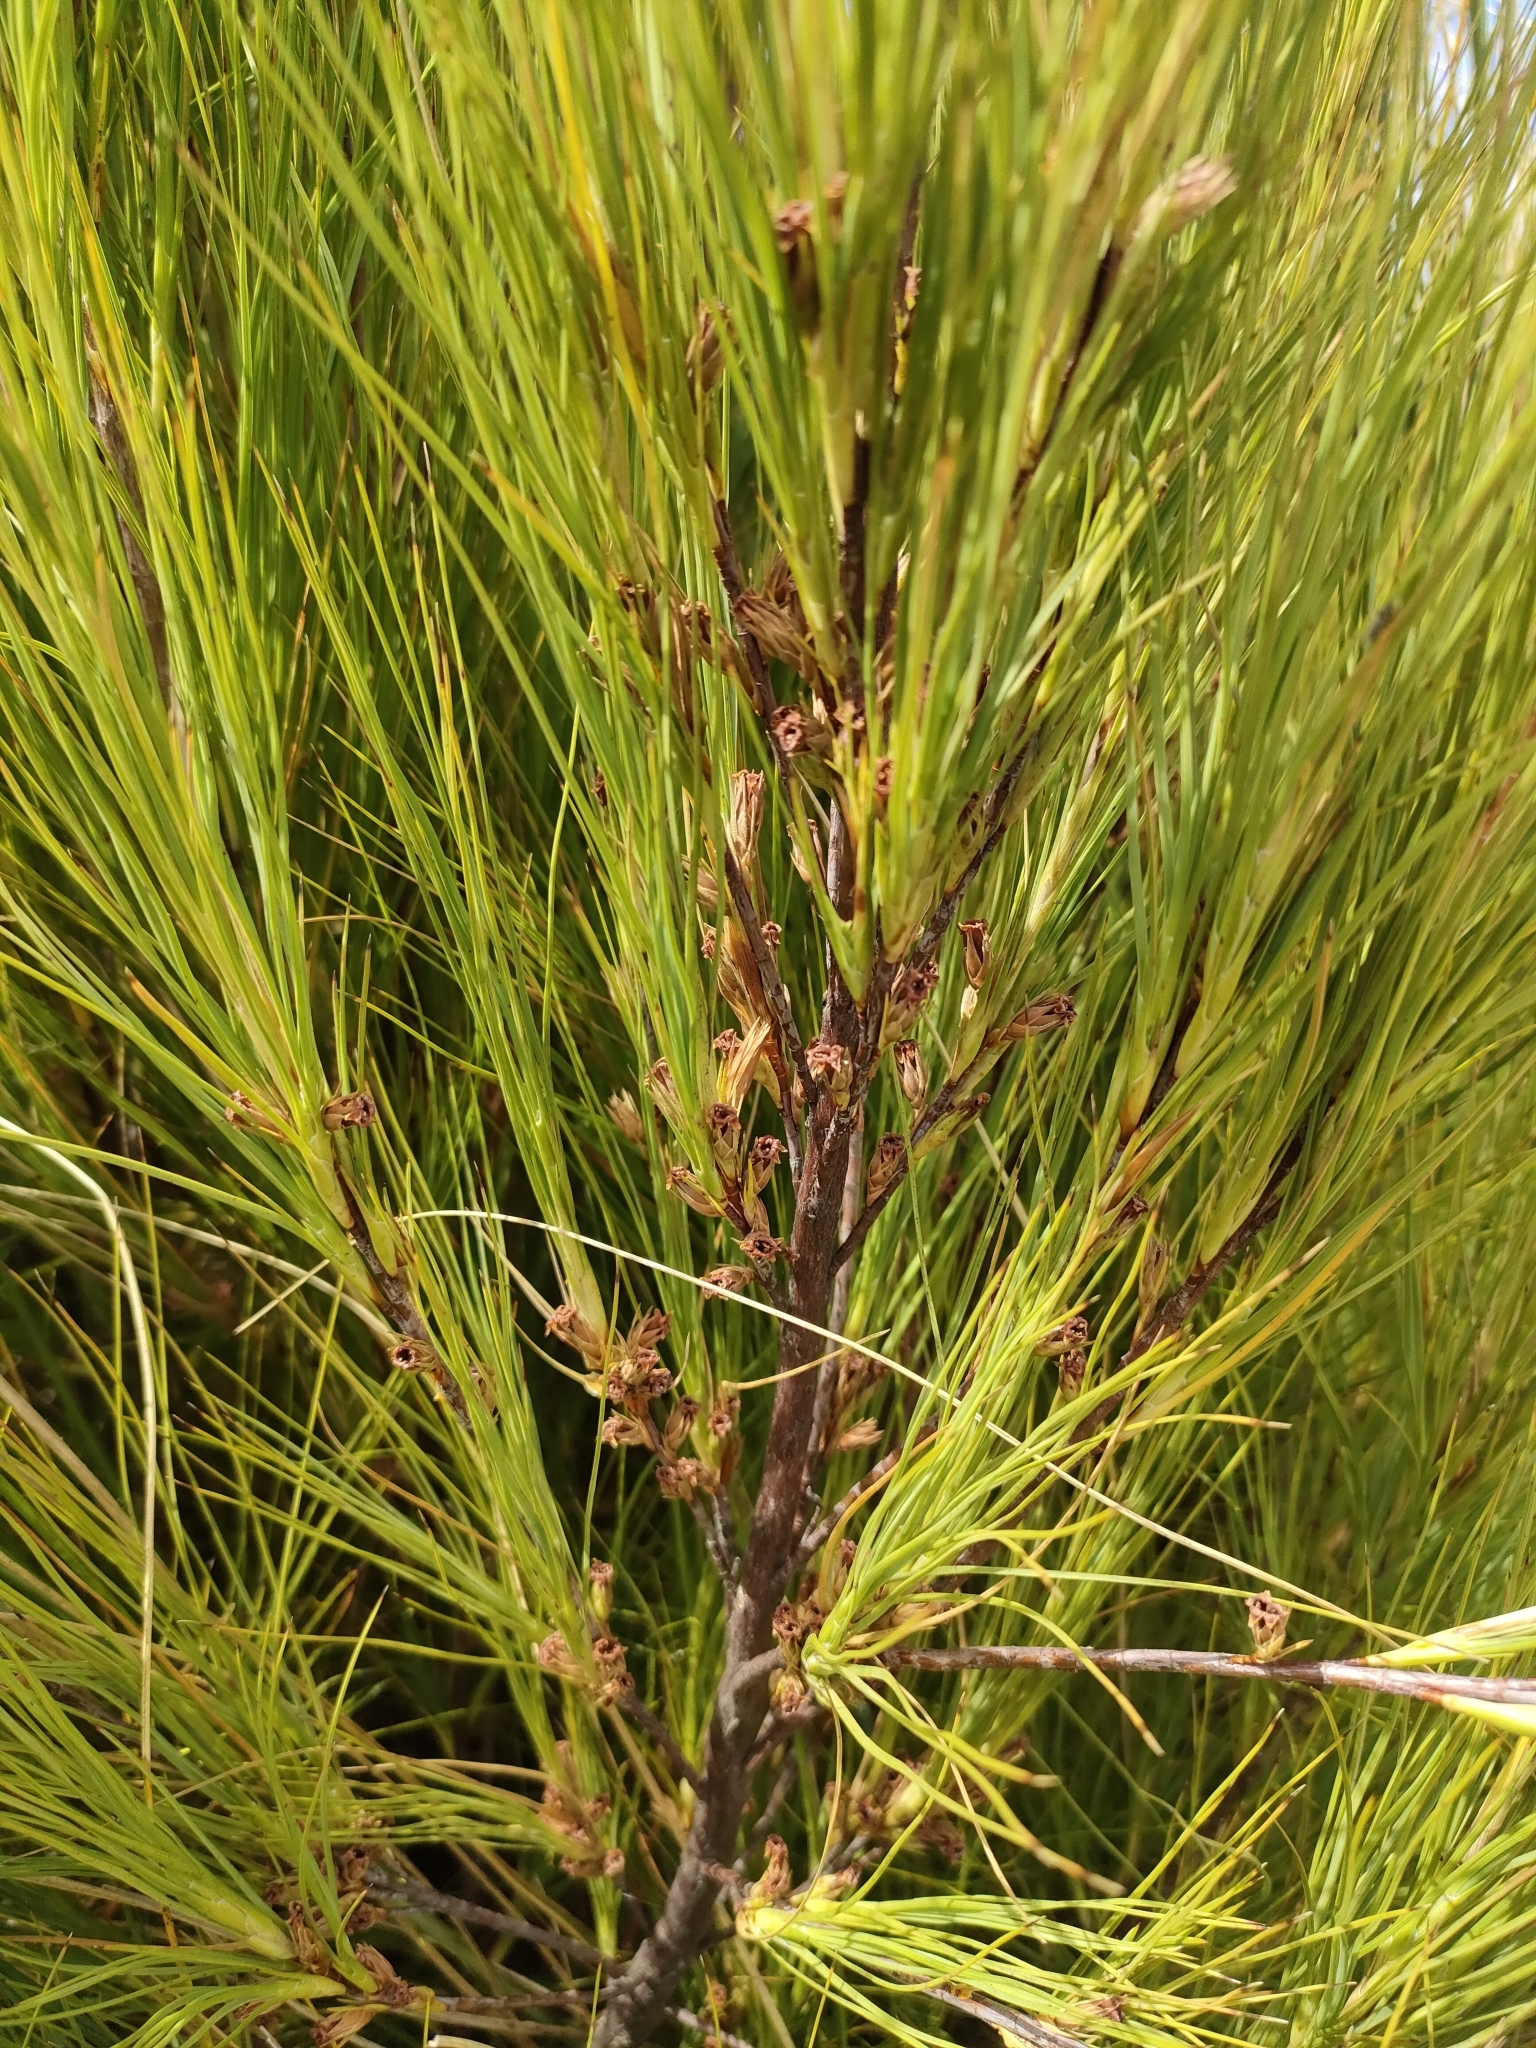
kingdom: Plantae
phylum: Tracheophyta
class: Magnoliopsida
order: Ericales
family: Ericaceae
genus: Dracophyllum
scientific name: Dracophyllum acerosum
